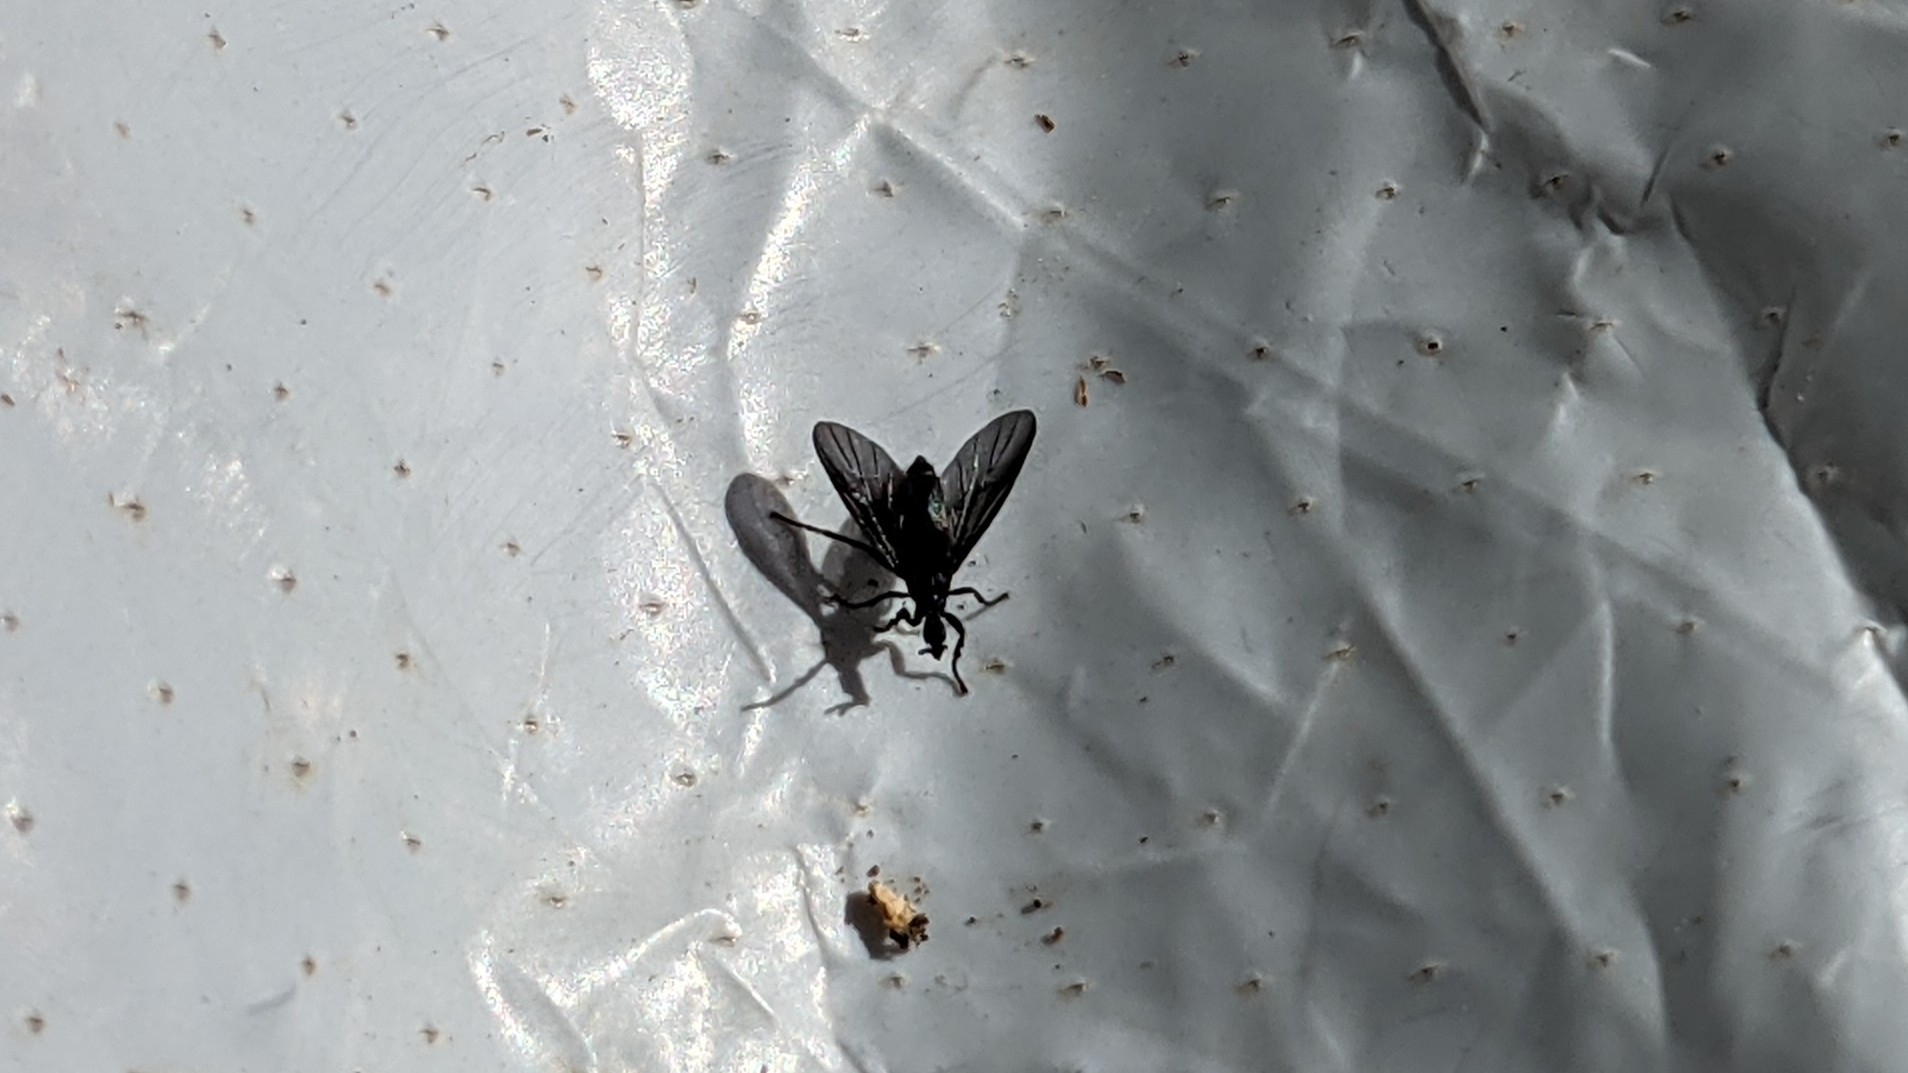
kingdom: Animalia
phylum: Arthropoda
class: Insecta
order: Diptera
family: Bibionidae
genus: Dilophus
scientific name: Dilophus orbatus
